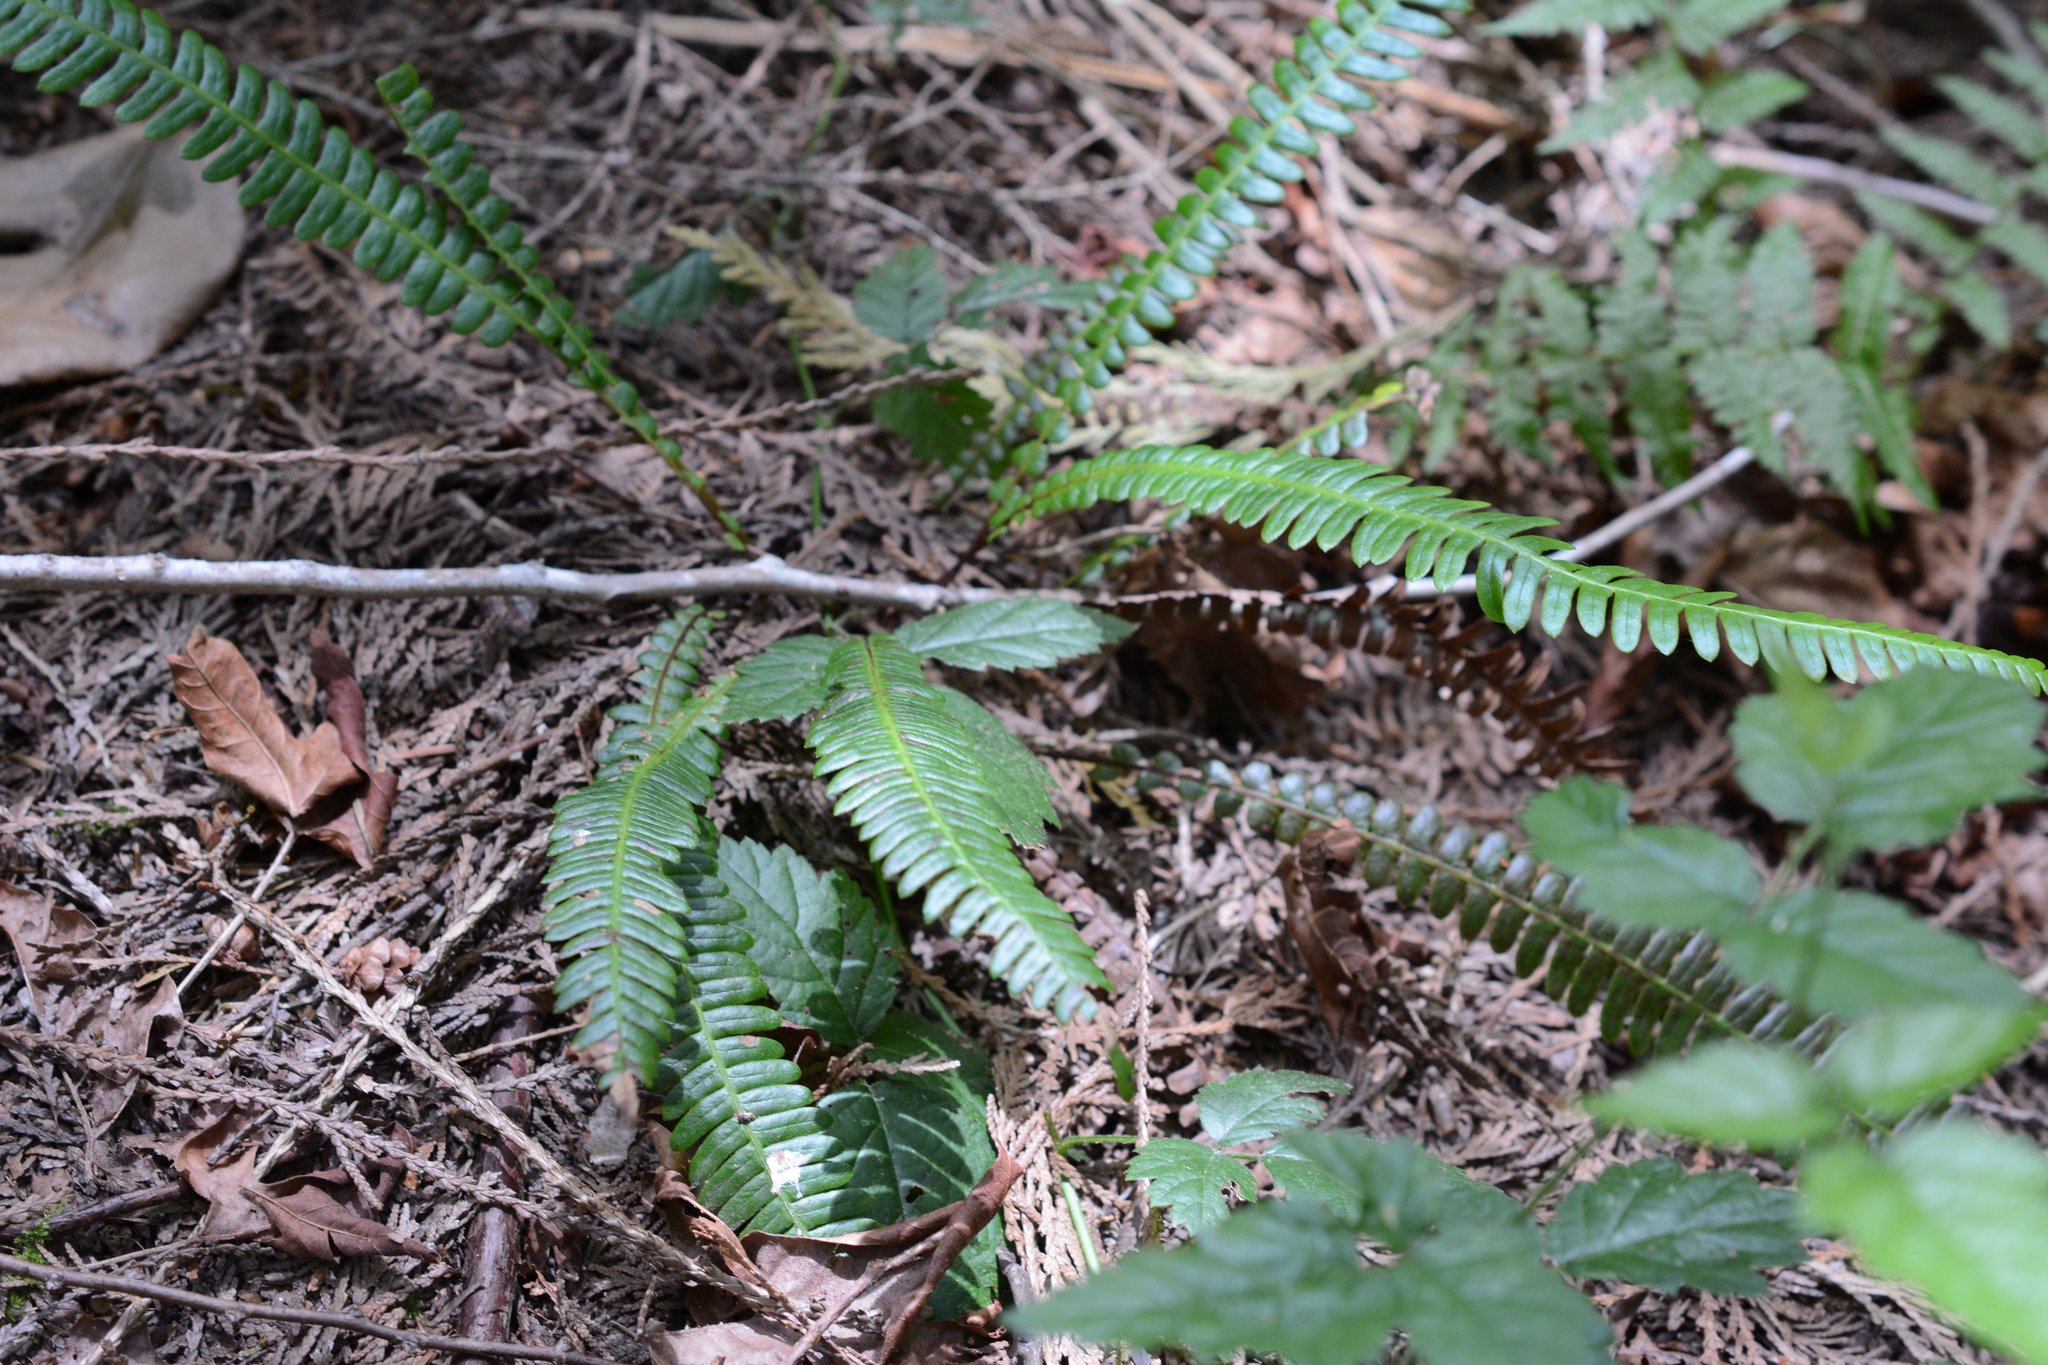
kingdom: Plantae
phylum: Tracheophyta
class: Polypodiopsida
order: Polypodiales
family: Blechnaceae
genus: Struthiopteris
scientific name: Struthiopteris spicant
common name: Deer fern
